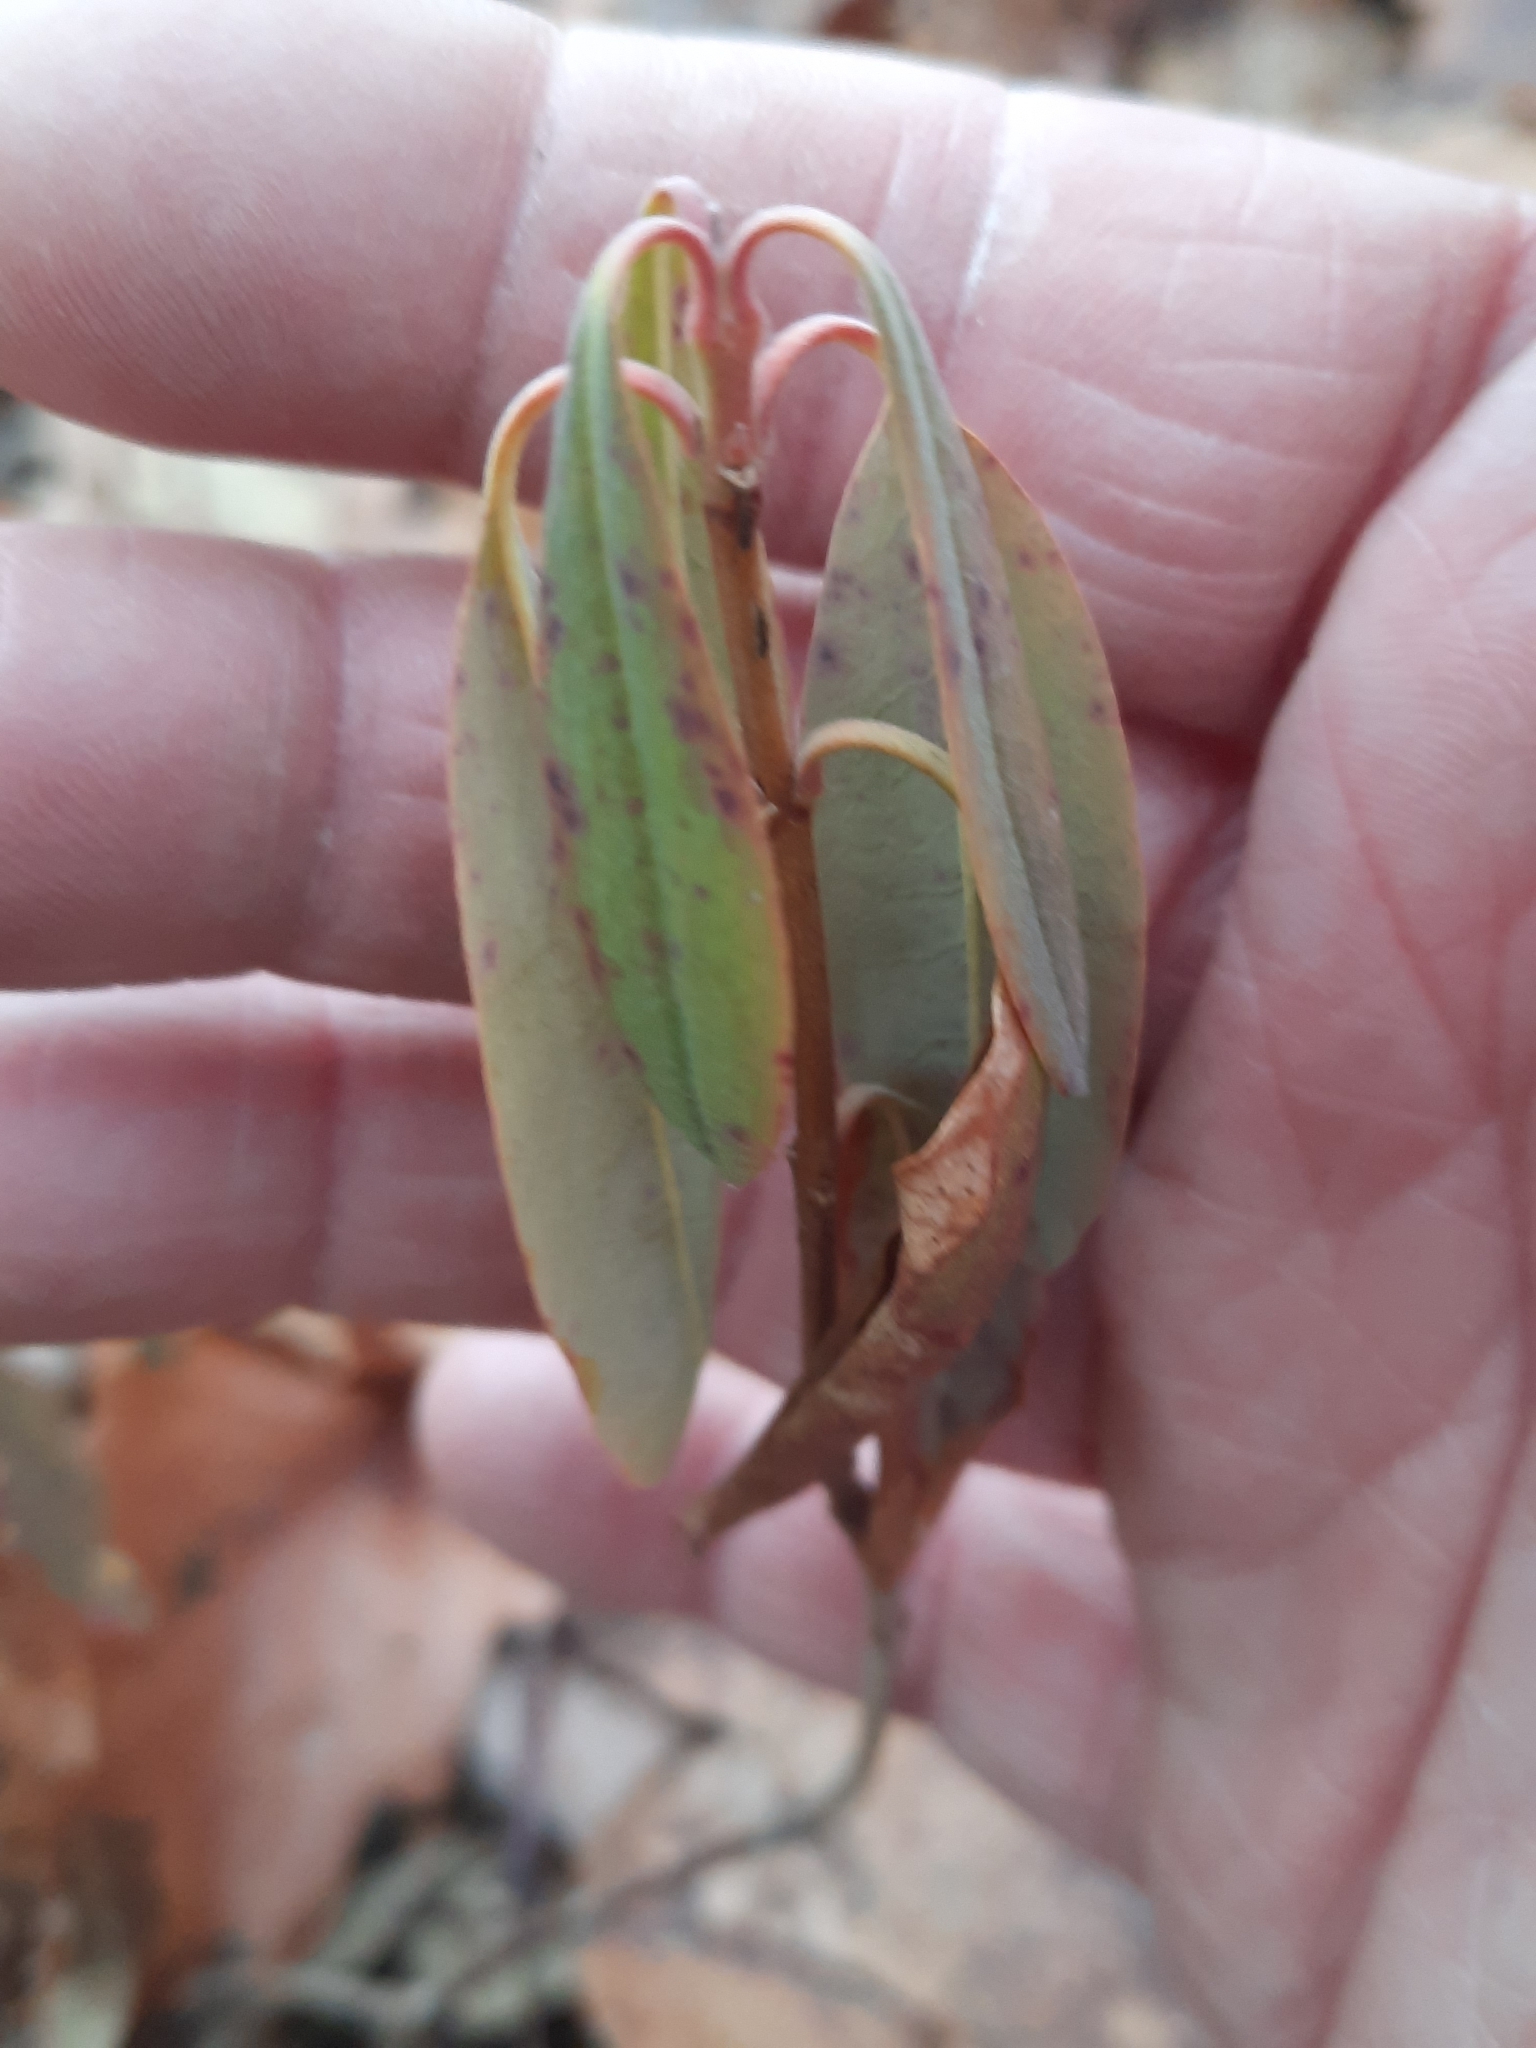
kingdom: Plantae
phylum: Tracheophyta
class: Magnoliopsida
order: Ericales
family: Ericaceae
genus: Kalmia
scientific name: Kalmia angustifolia
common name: Sheep-laurel
